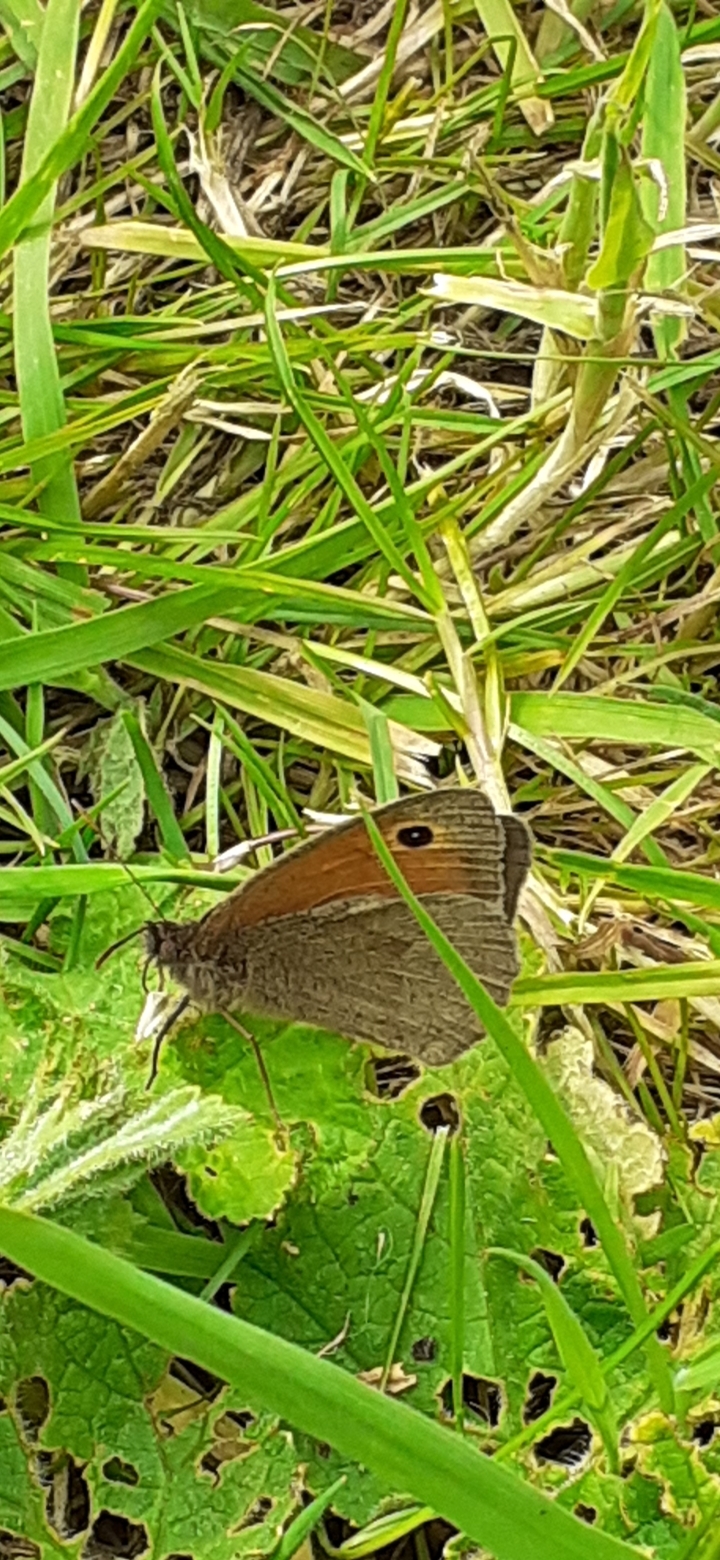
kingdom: Animalia
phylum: Arthropoda
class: Insecta
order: Lepidoptera
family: Nymphalidae
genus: Maniola
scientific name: Maniola jurtina
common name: Meadow brown
